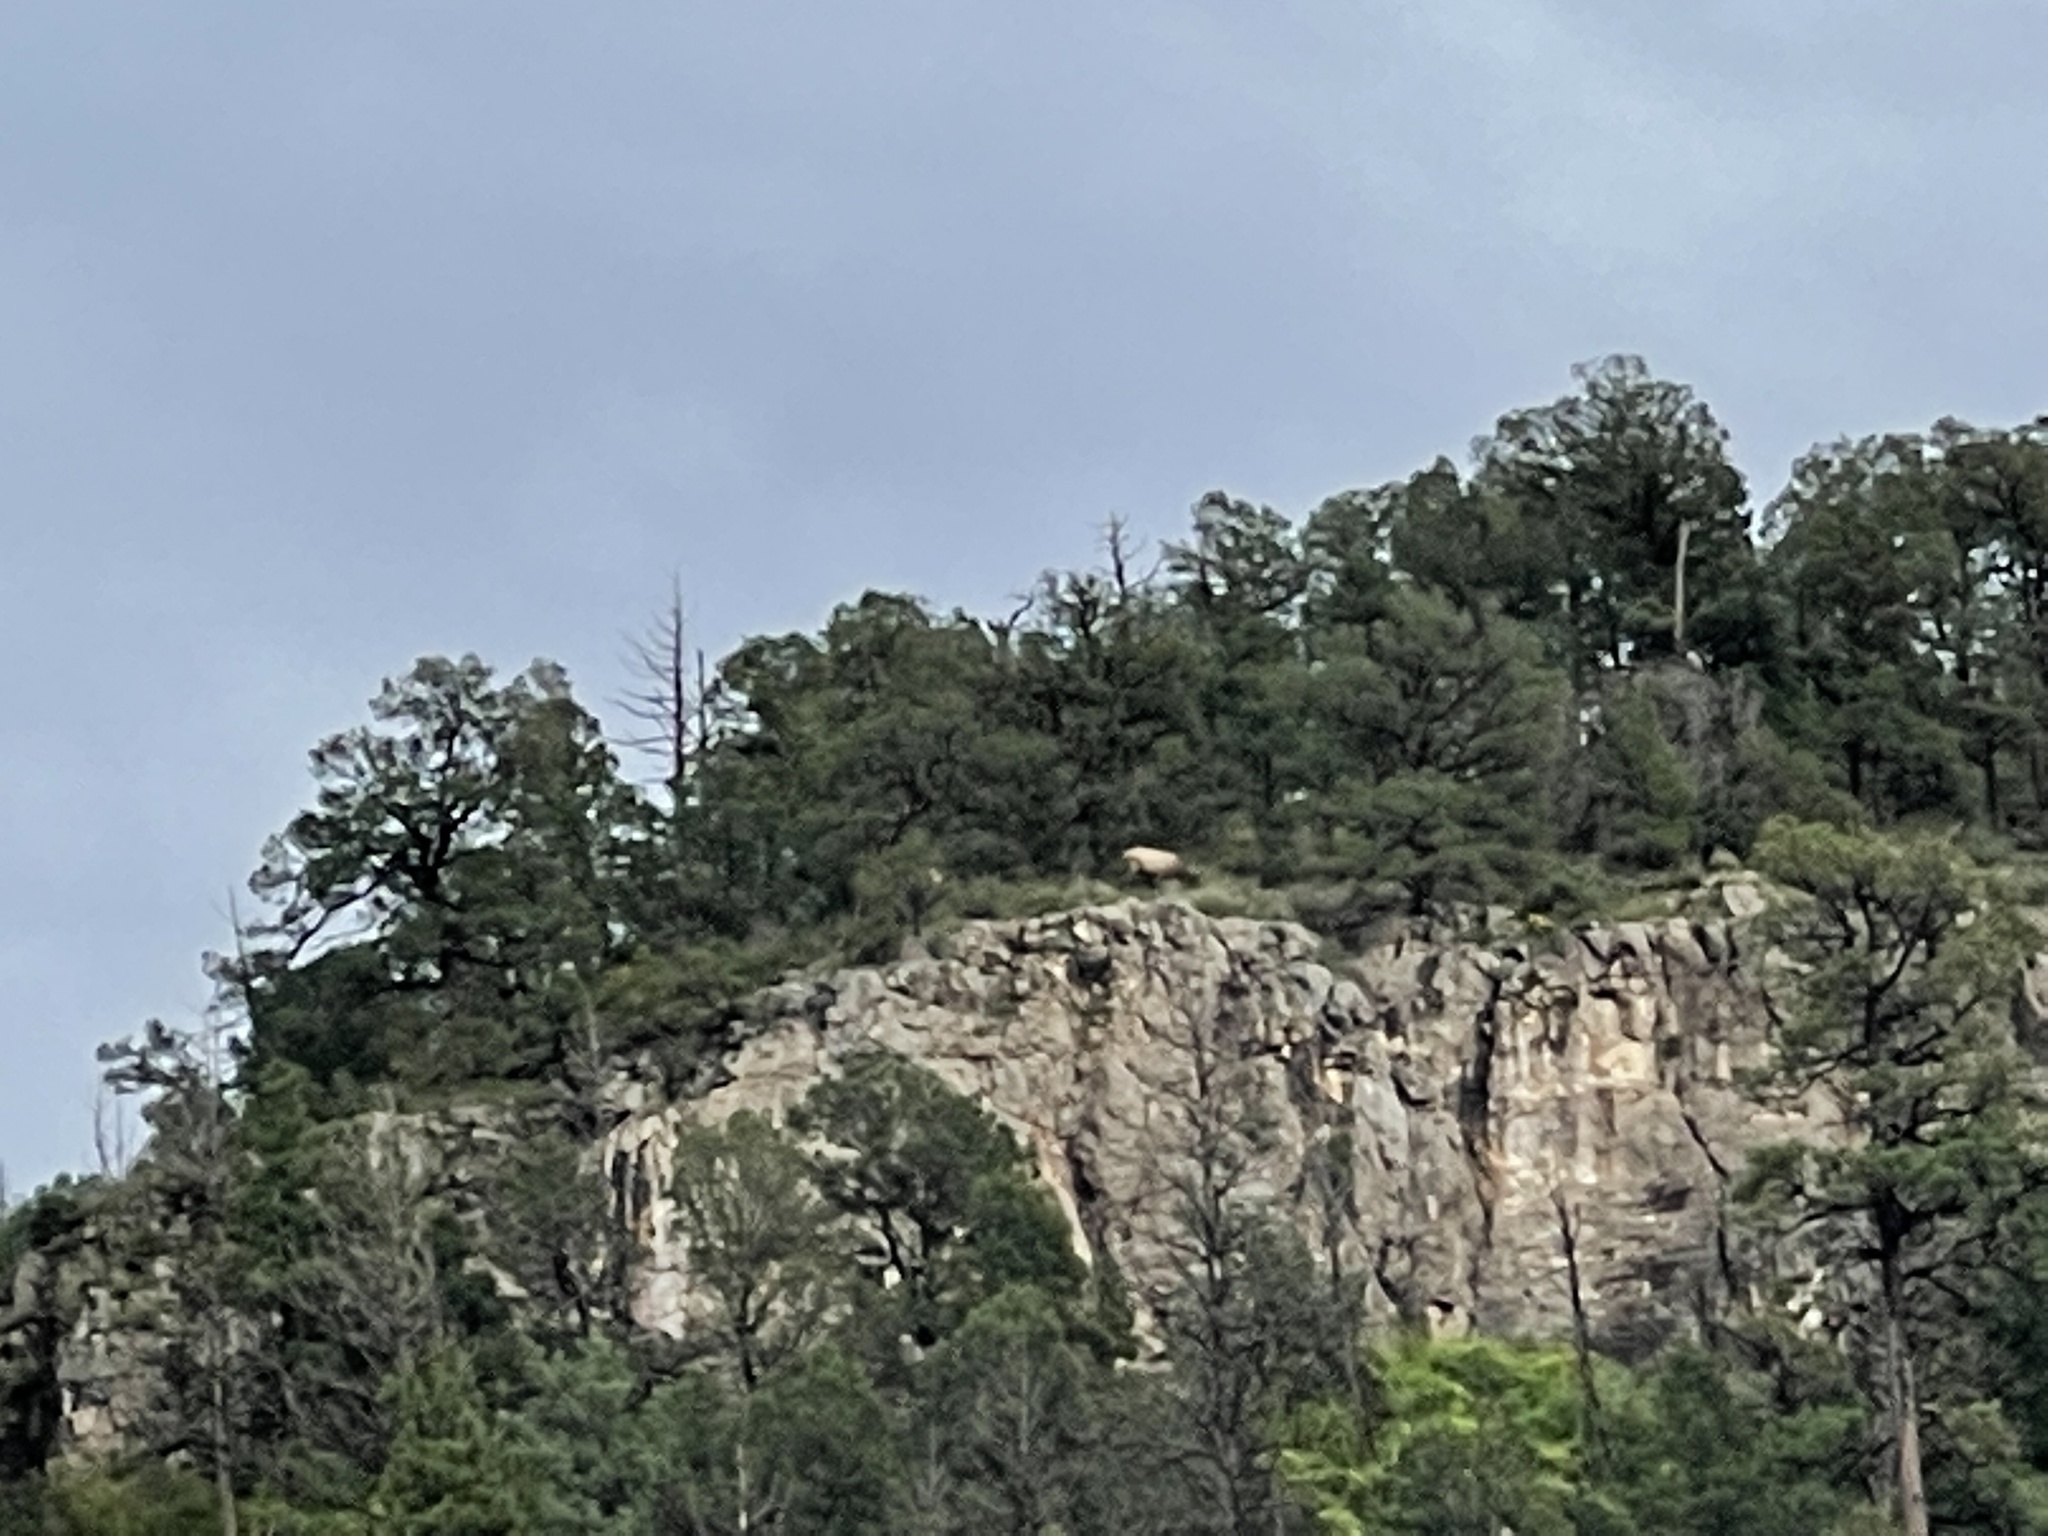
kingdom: Animalia
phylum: Chordata
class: Mammalia
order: Artiodactyla
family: Cervidae
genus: Cervus
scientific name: Cervus elaphus
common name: Red deer
